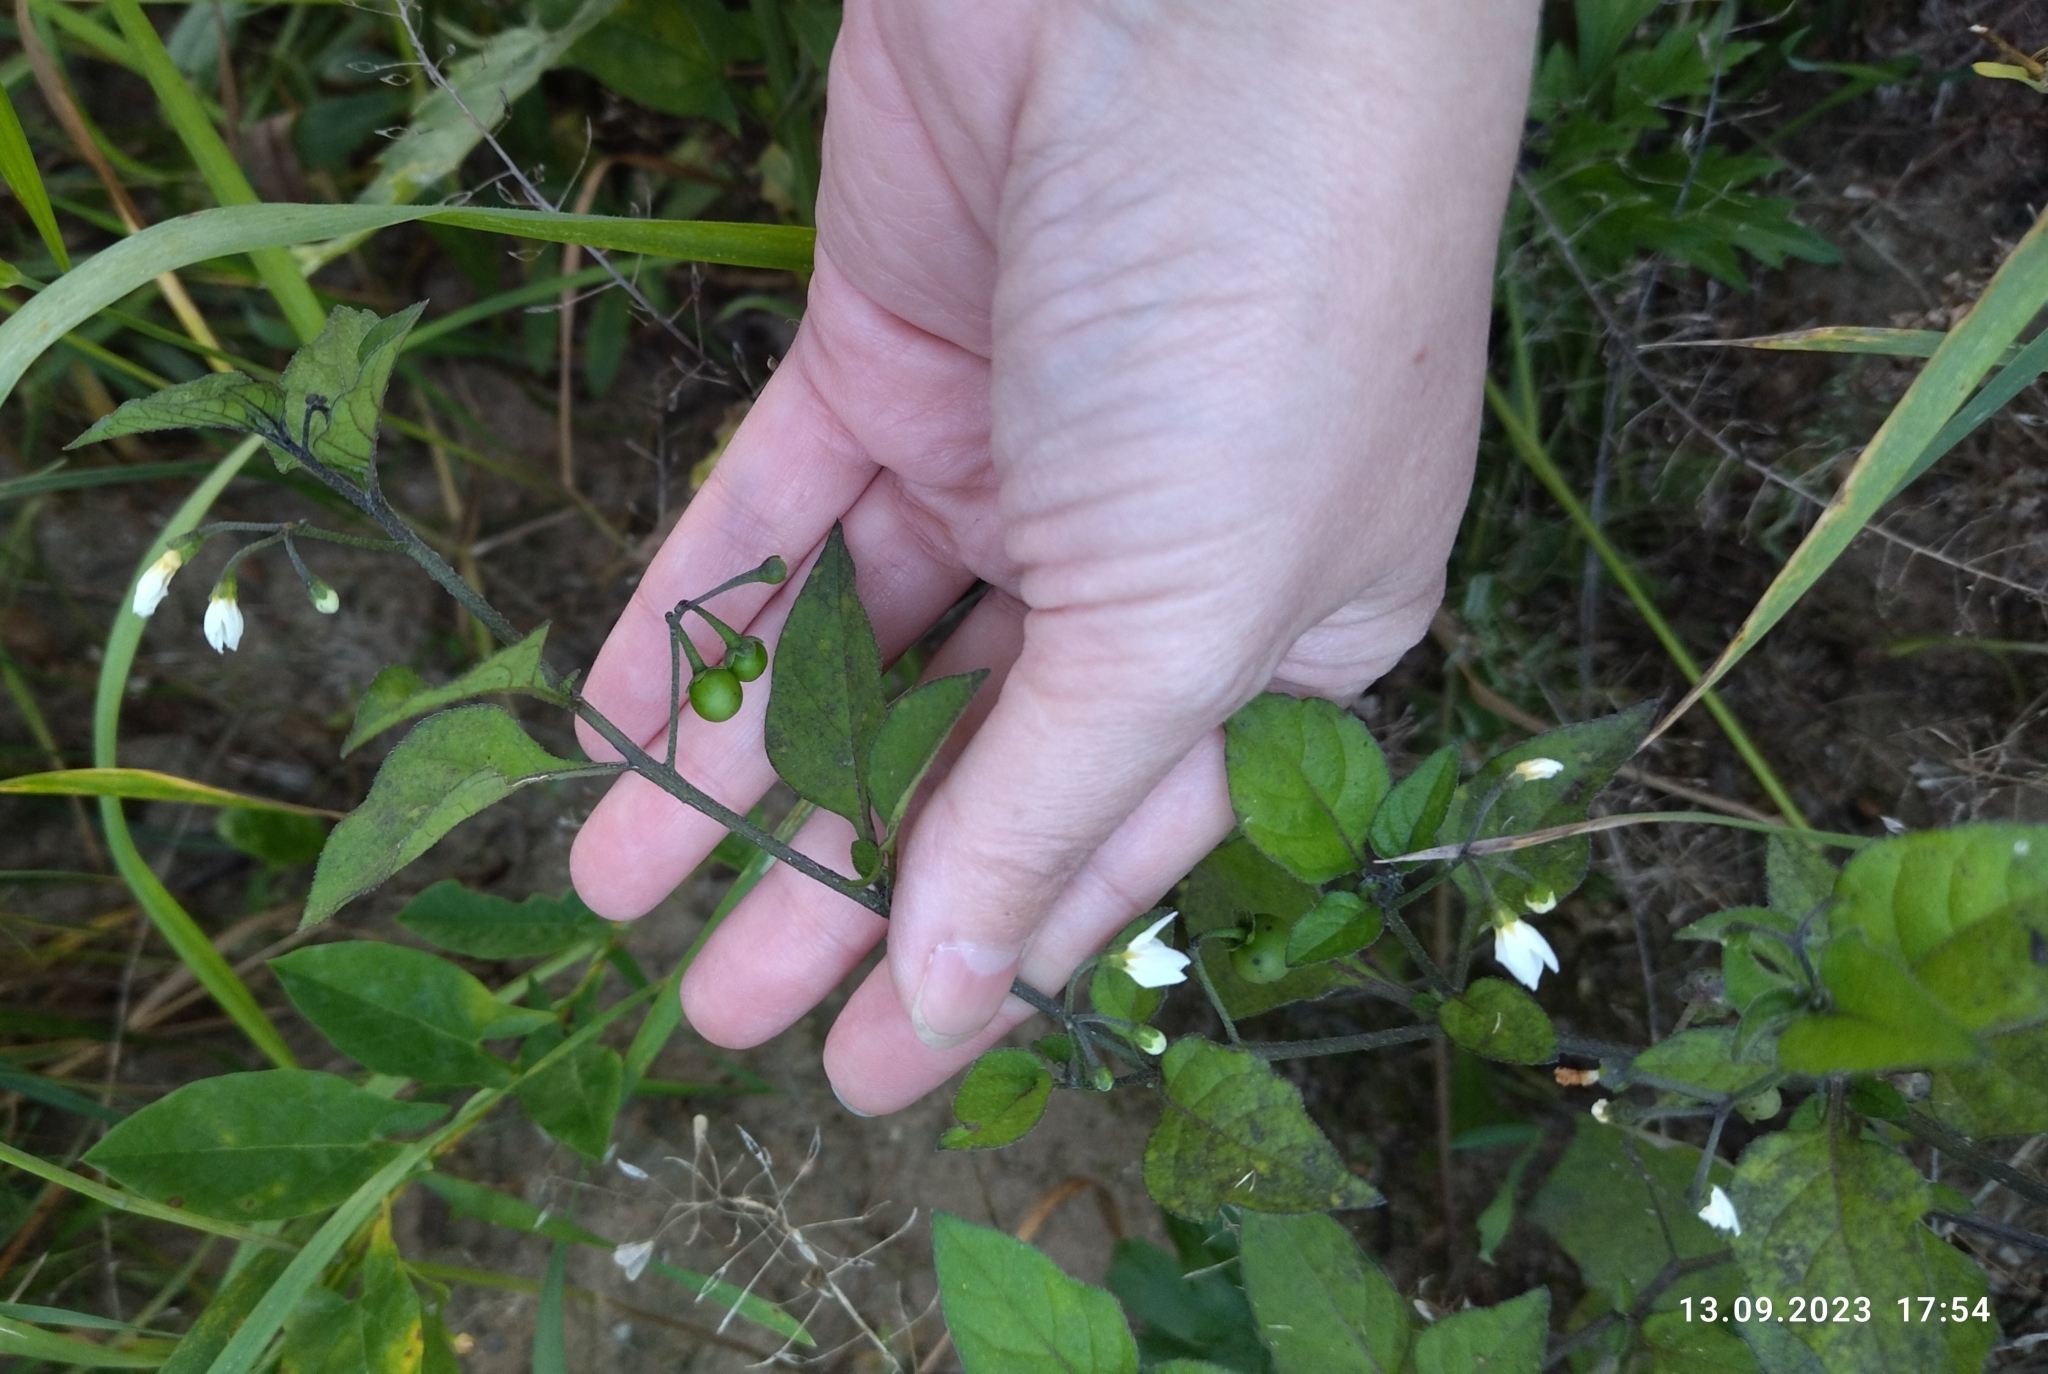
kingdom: Plantae
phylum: Tracheophyta
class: Magnoliopsida
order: Solanales
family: Solanaceae
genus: Solanum
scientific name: Solanum nigrum
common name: Black nightshade
